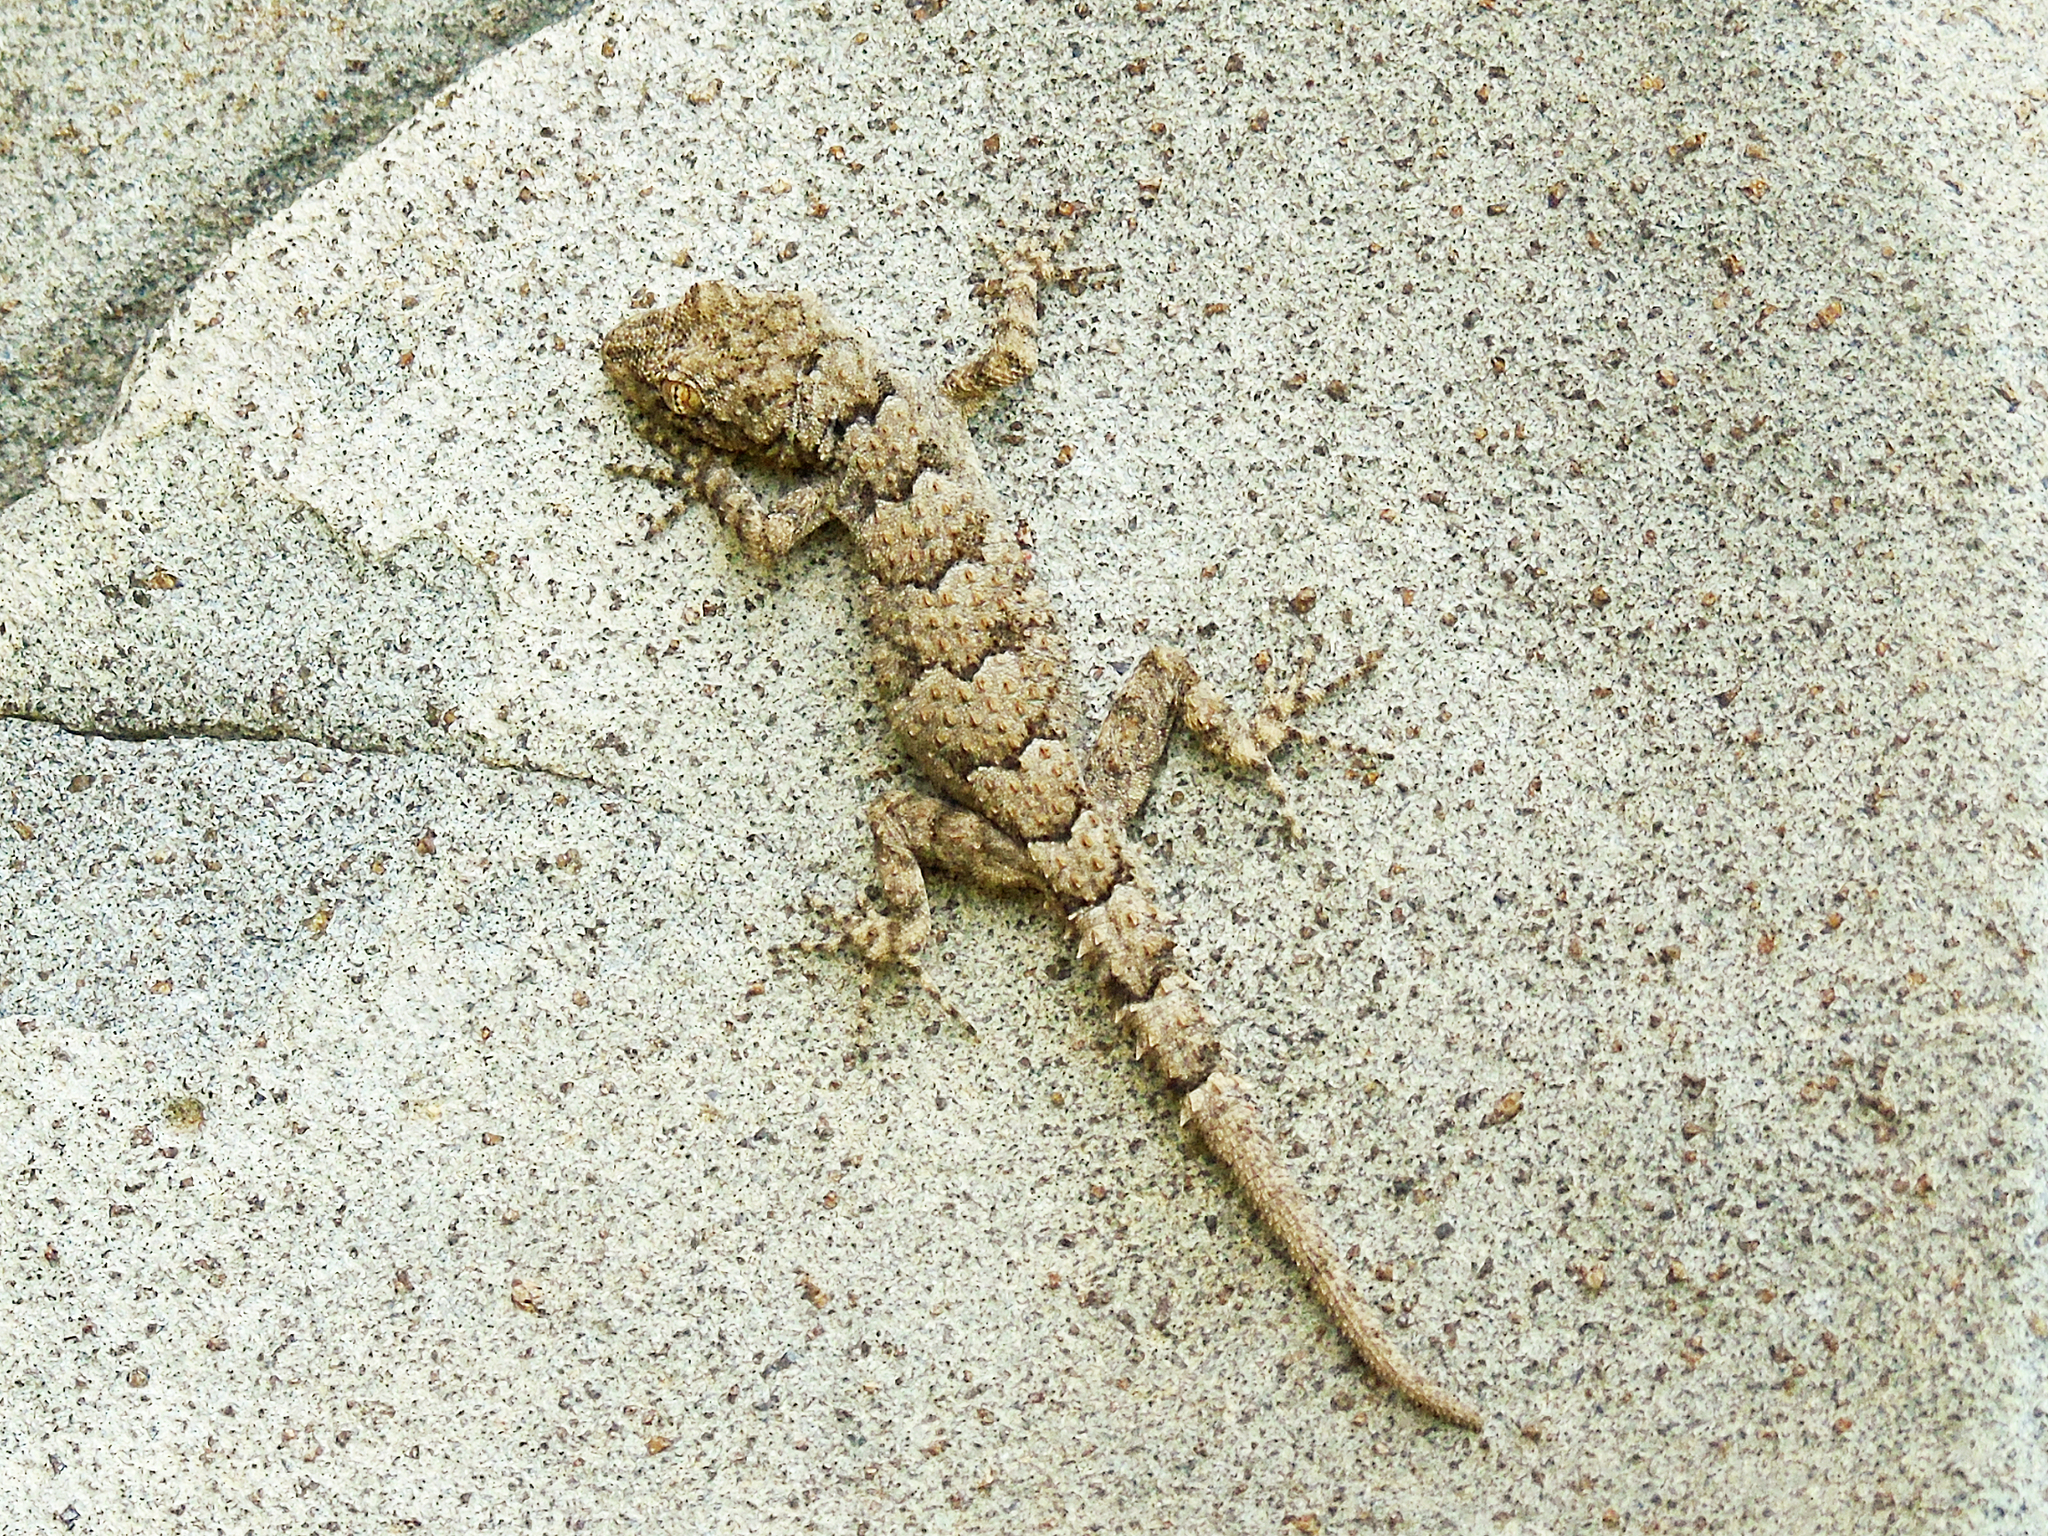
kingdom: Animalia
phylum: Chordata
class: Squamata
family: Gekkonidae
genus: Mediodactylus
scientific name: Mediodactylus heterocercus
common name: Asia minor thin-toed gecko
